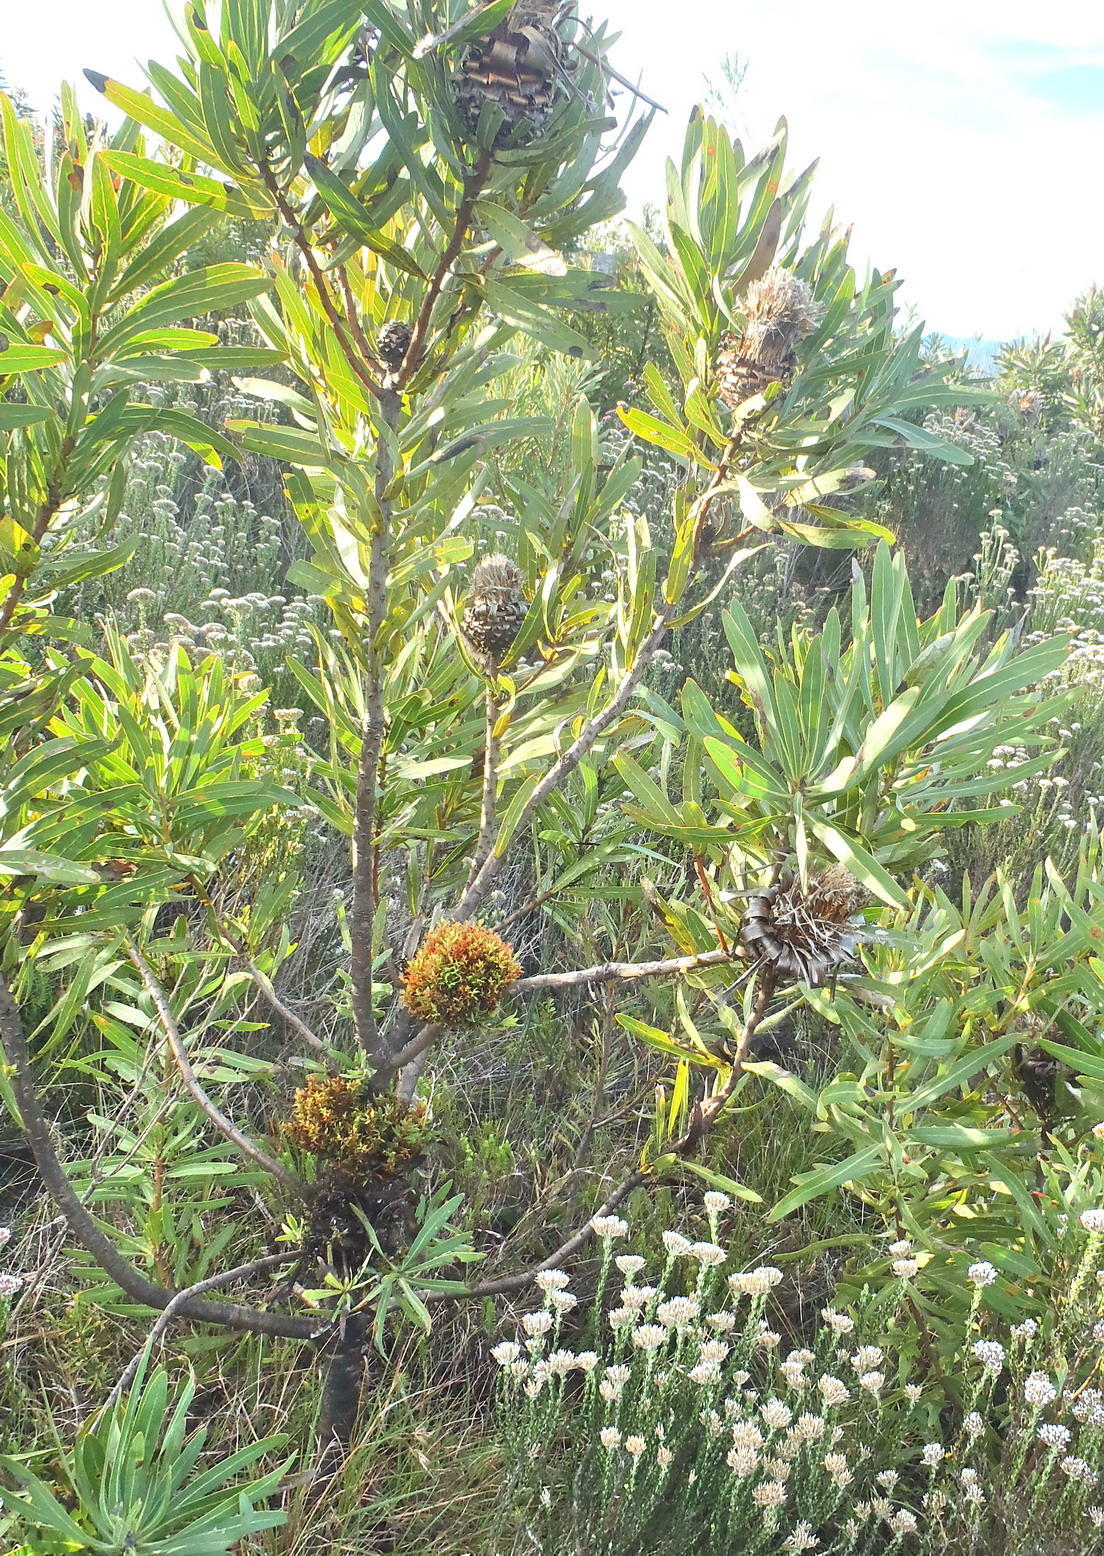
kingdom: Bacteria
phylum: Firmicutes
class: Bacilli
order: Acholeplasmatales
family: Acholeplasmataceae
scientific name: Acholeplasmataceae
